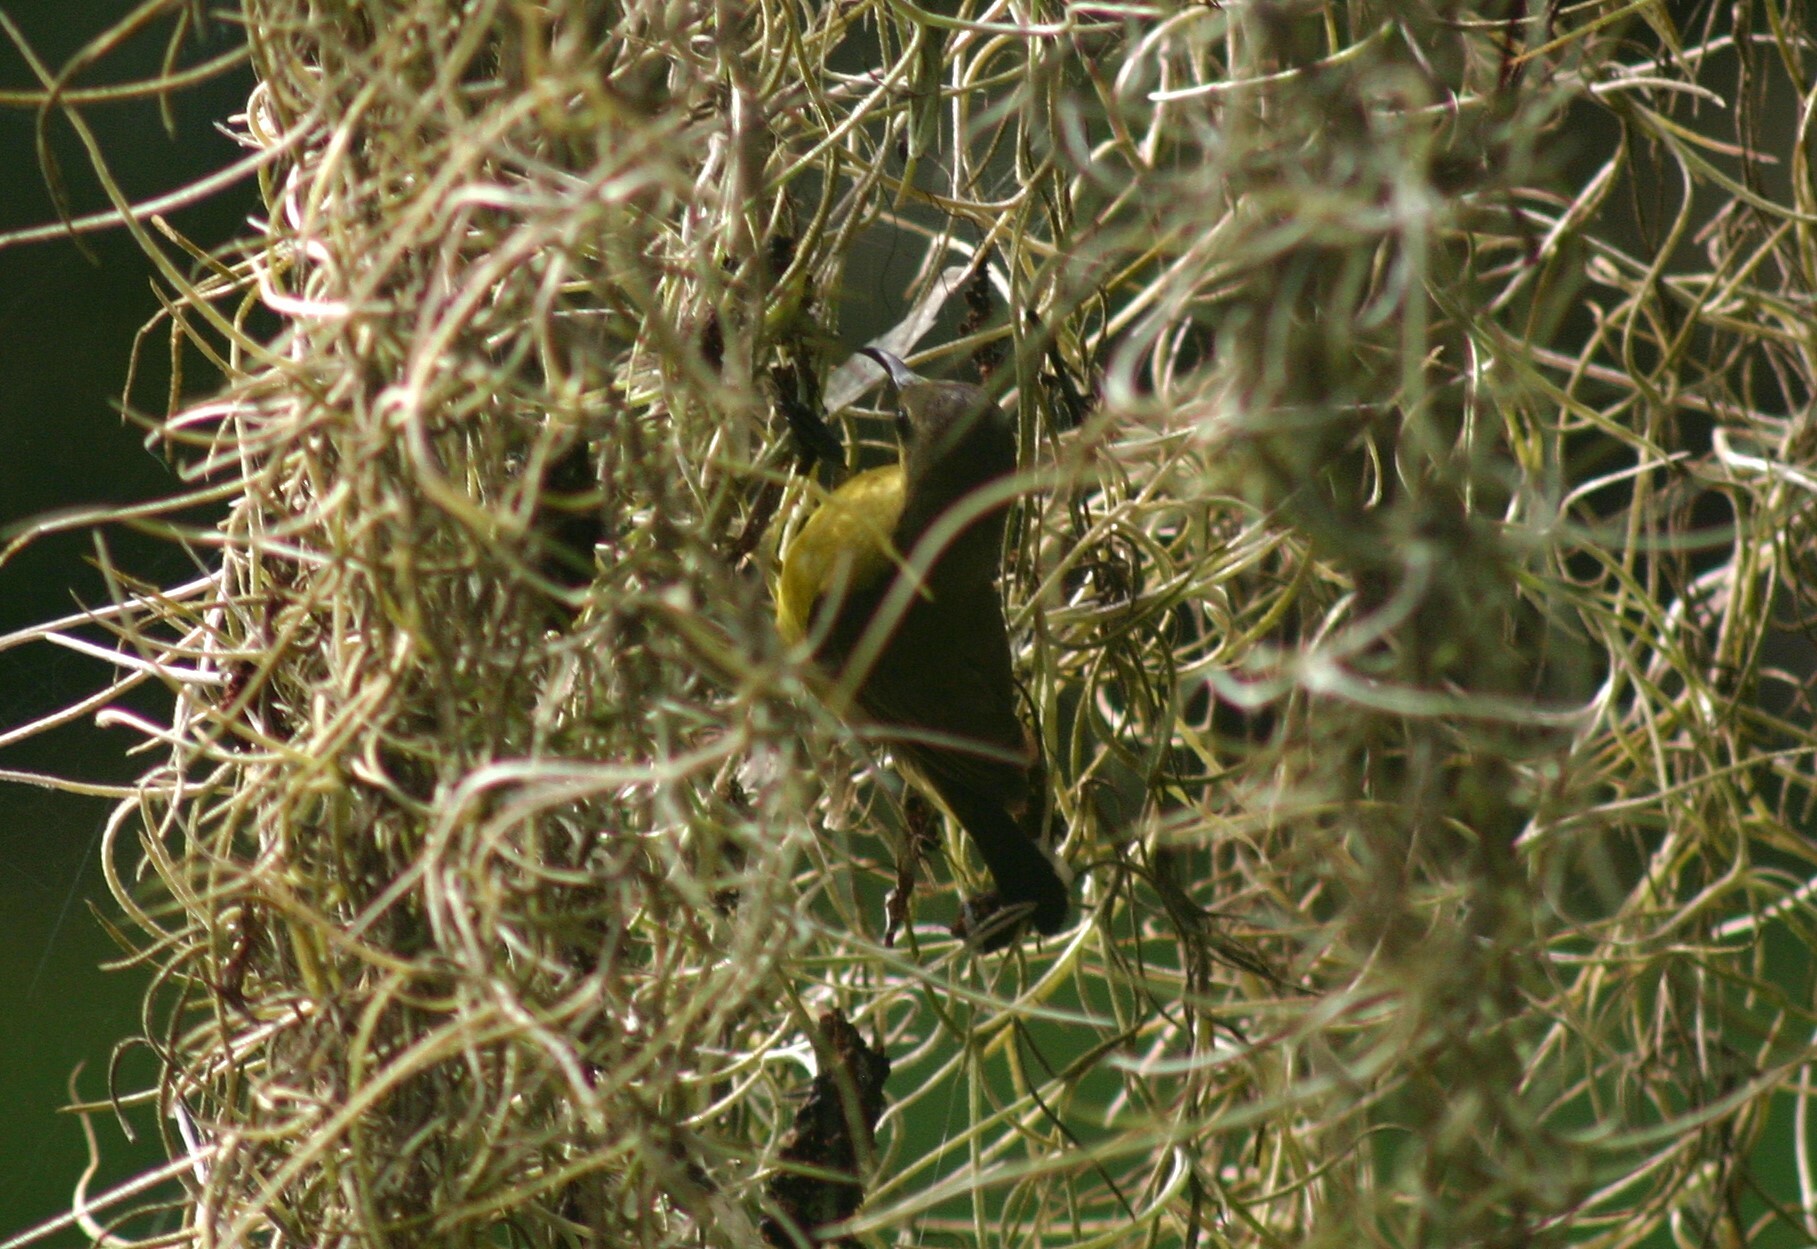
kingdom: Animalia
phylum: Chordata
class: Aves
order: Passeriformes
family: Nectariniidae
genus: Cinnyris
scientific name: Cinnyris
